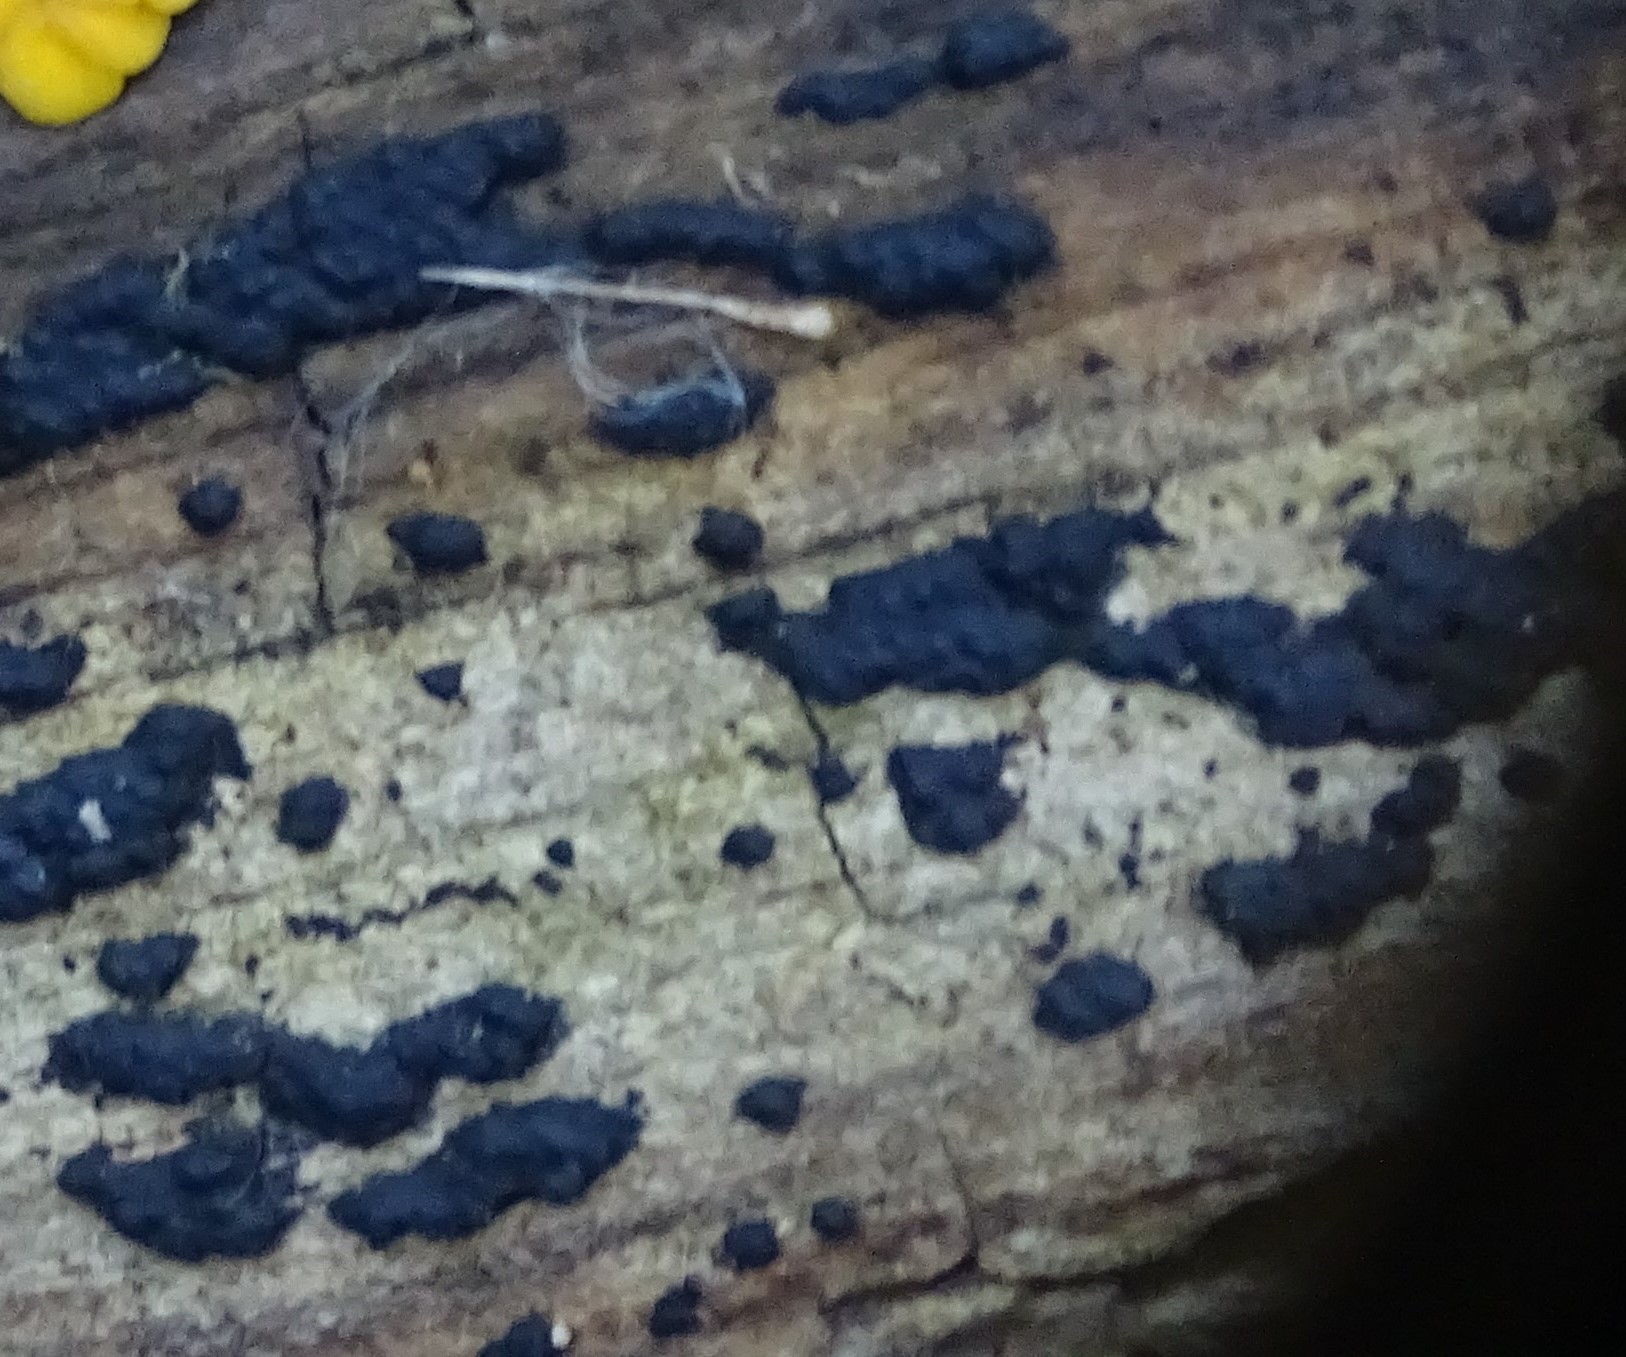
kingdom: Fungi
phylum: Basidiomycota
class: Agaricomycetes
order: Auriculariales
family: Auriculariaceae
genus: Exidia
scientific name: Exidia glandulosa
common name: Witches' butter
